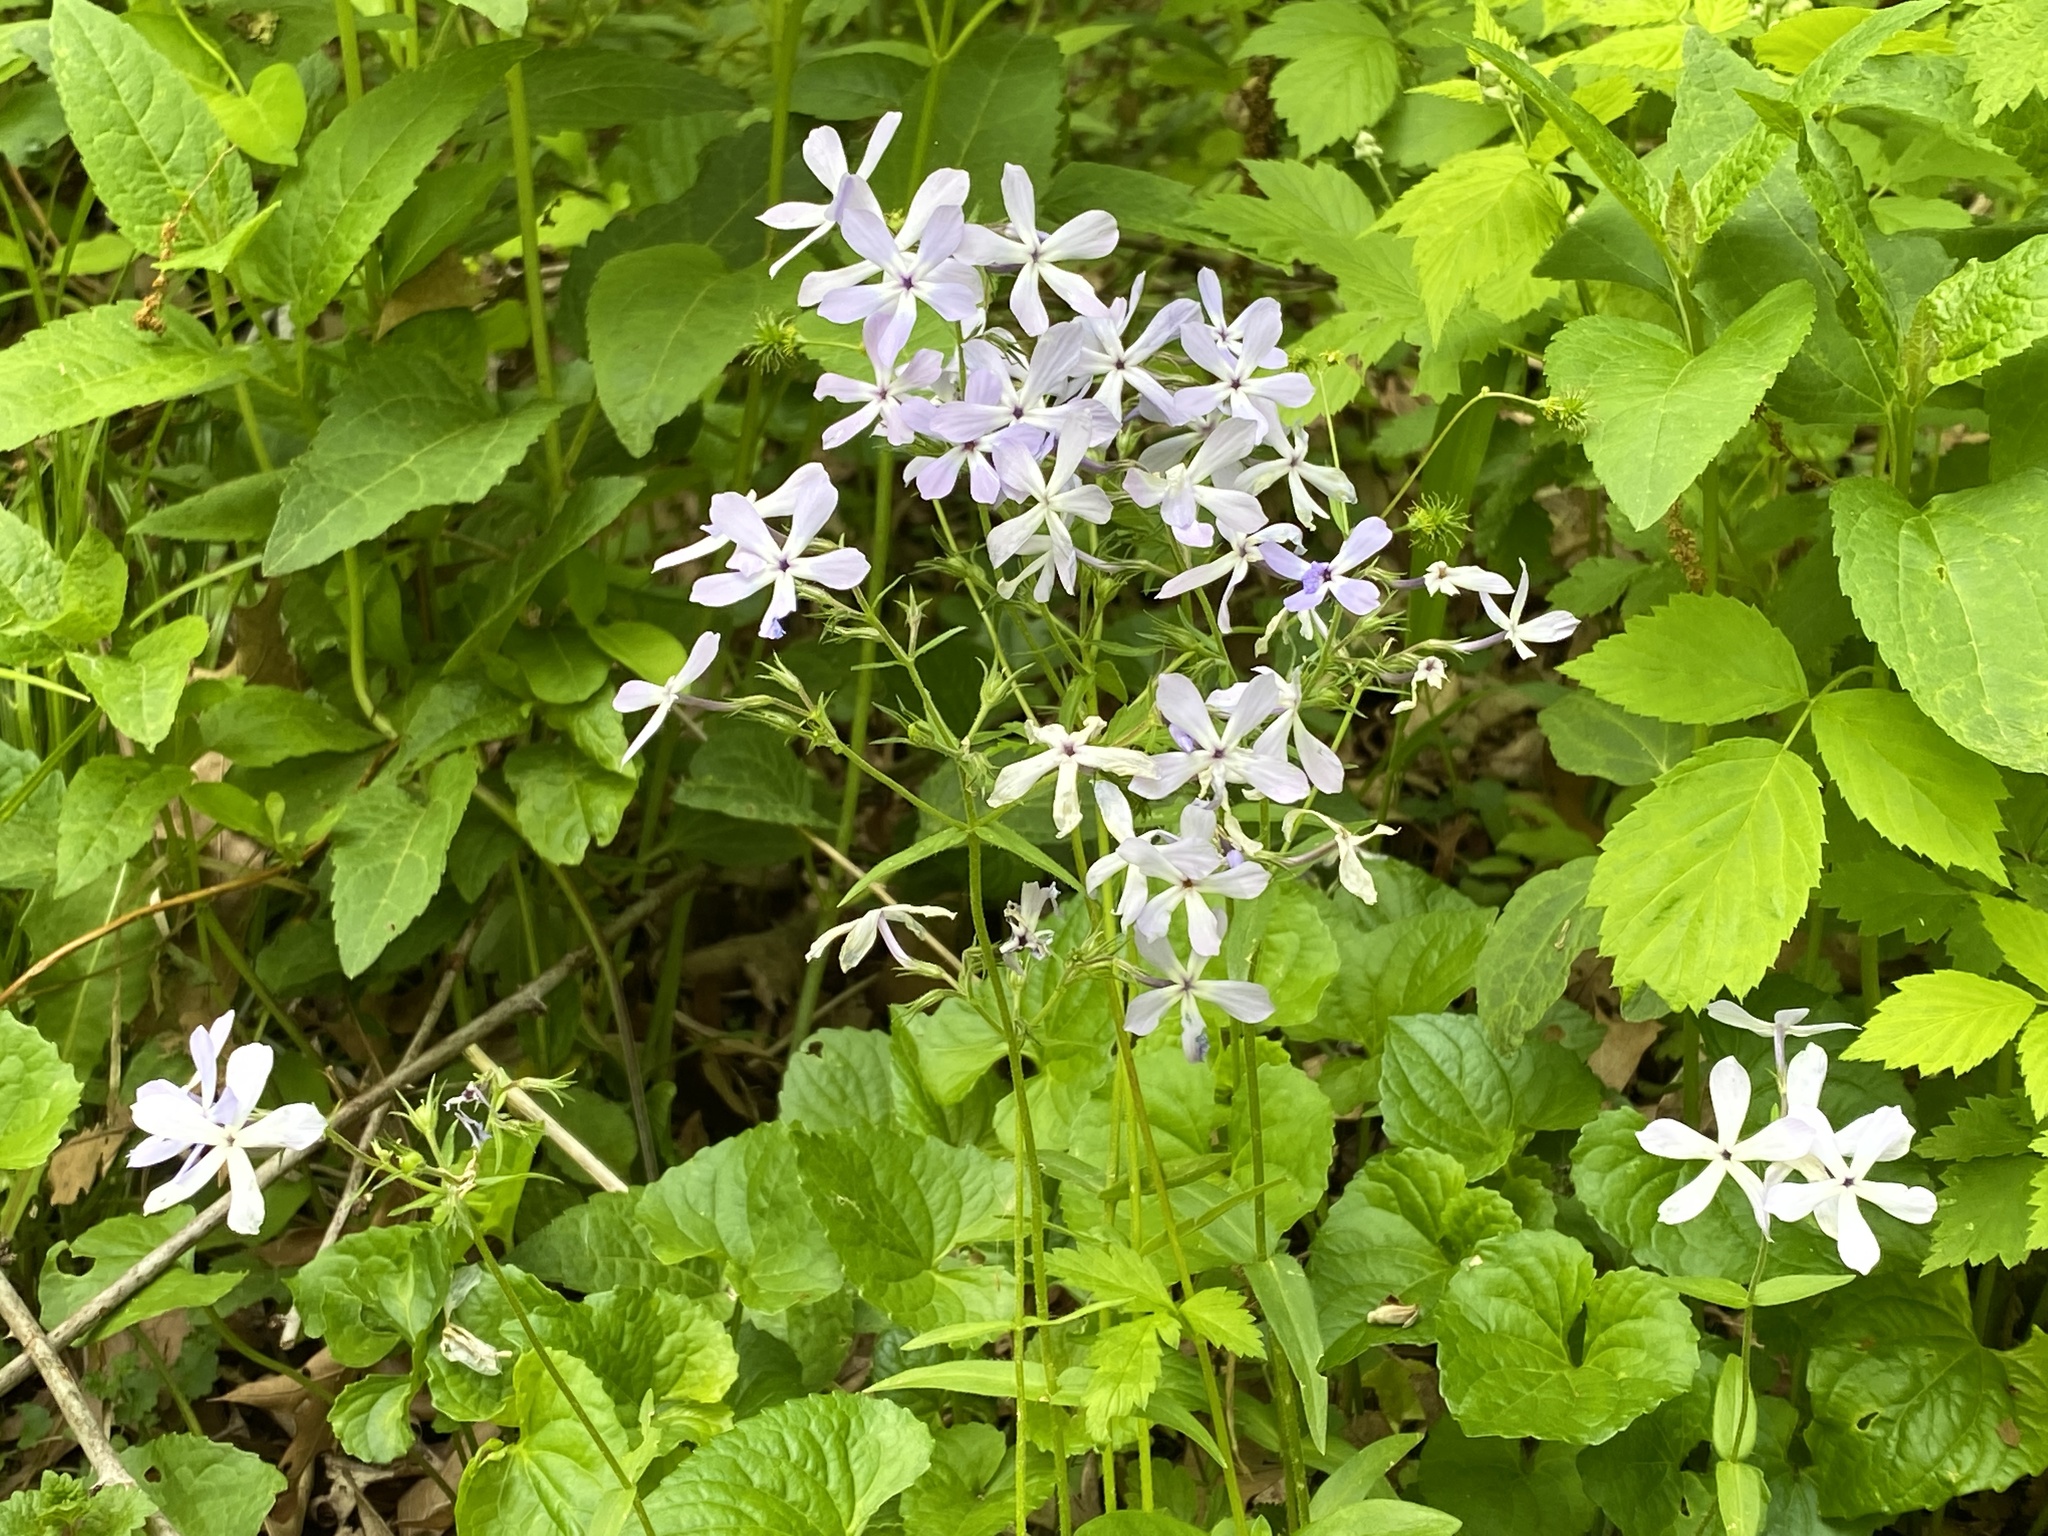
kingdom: Plantae
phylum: Tracheophyta
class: Magnoliopsida
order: Ericales
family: Polemoniaceae
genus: Phlox
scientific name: Phlox divaricata
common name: Blue phlox
